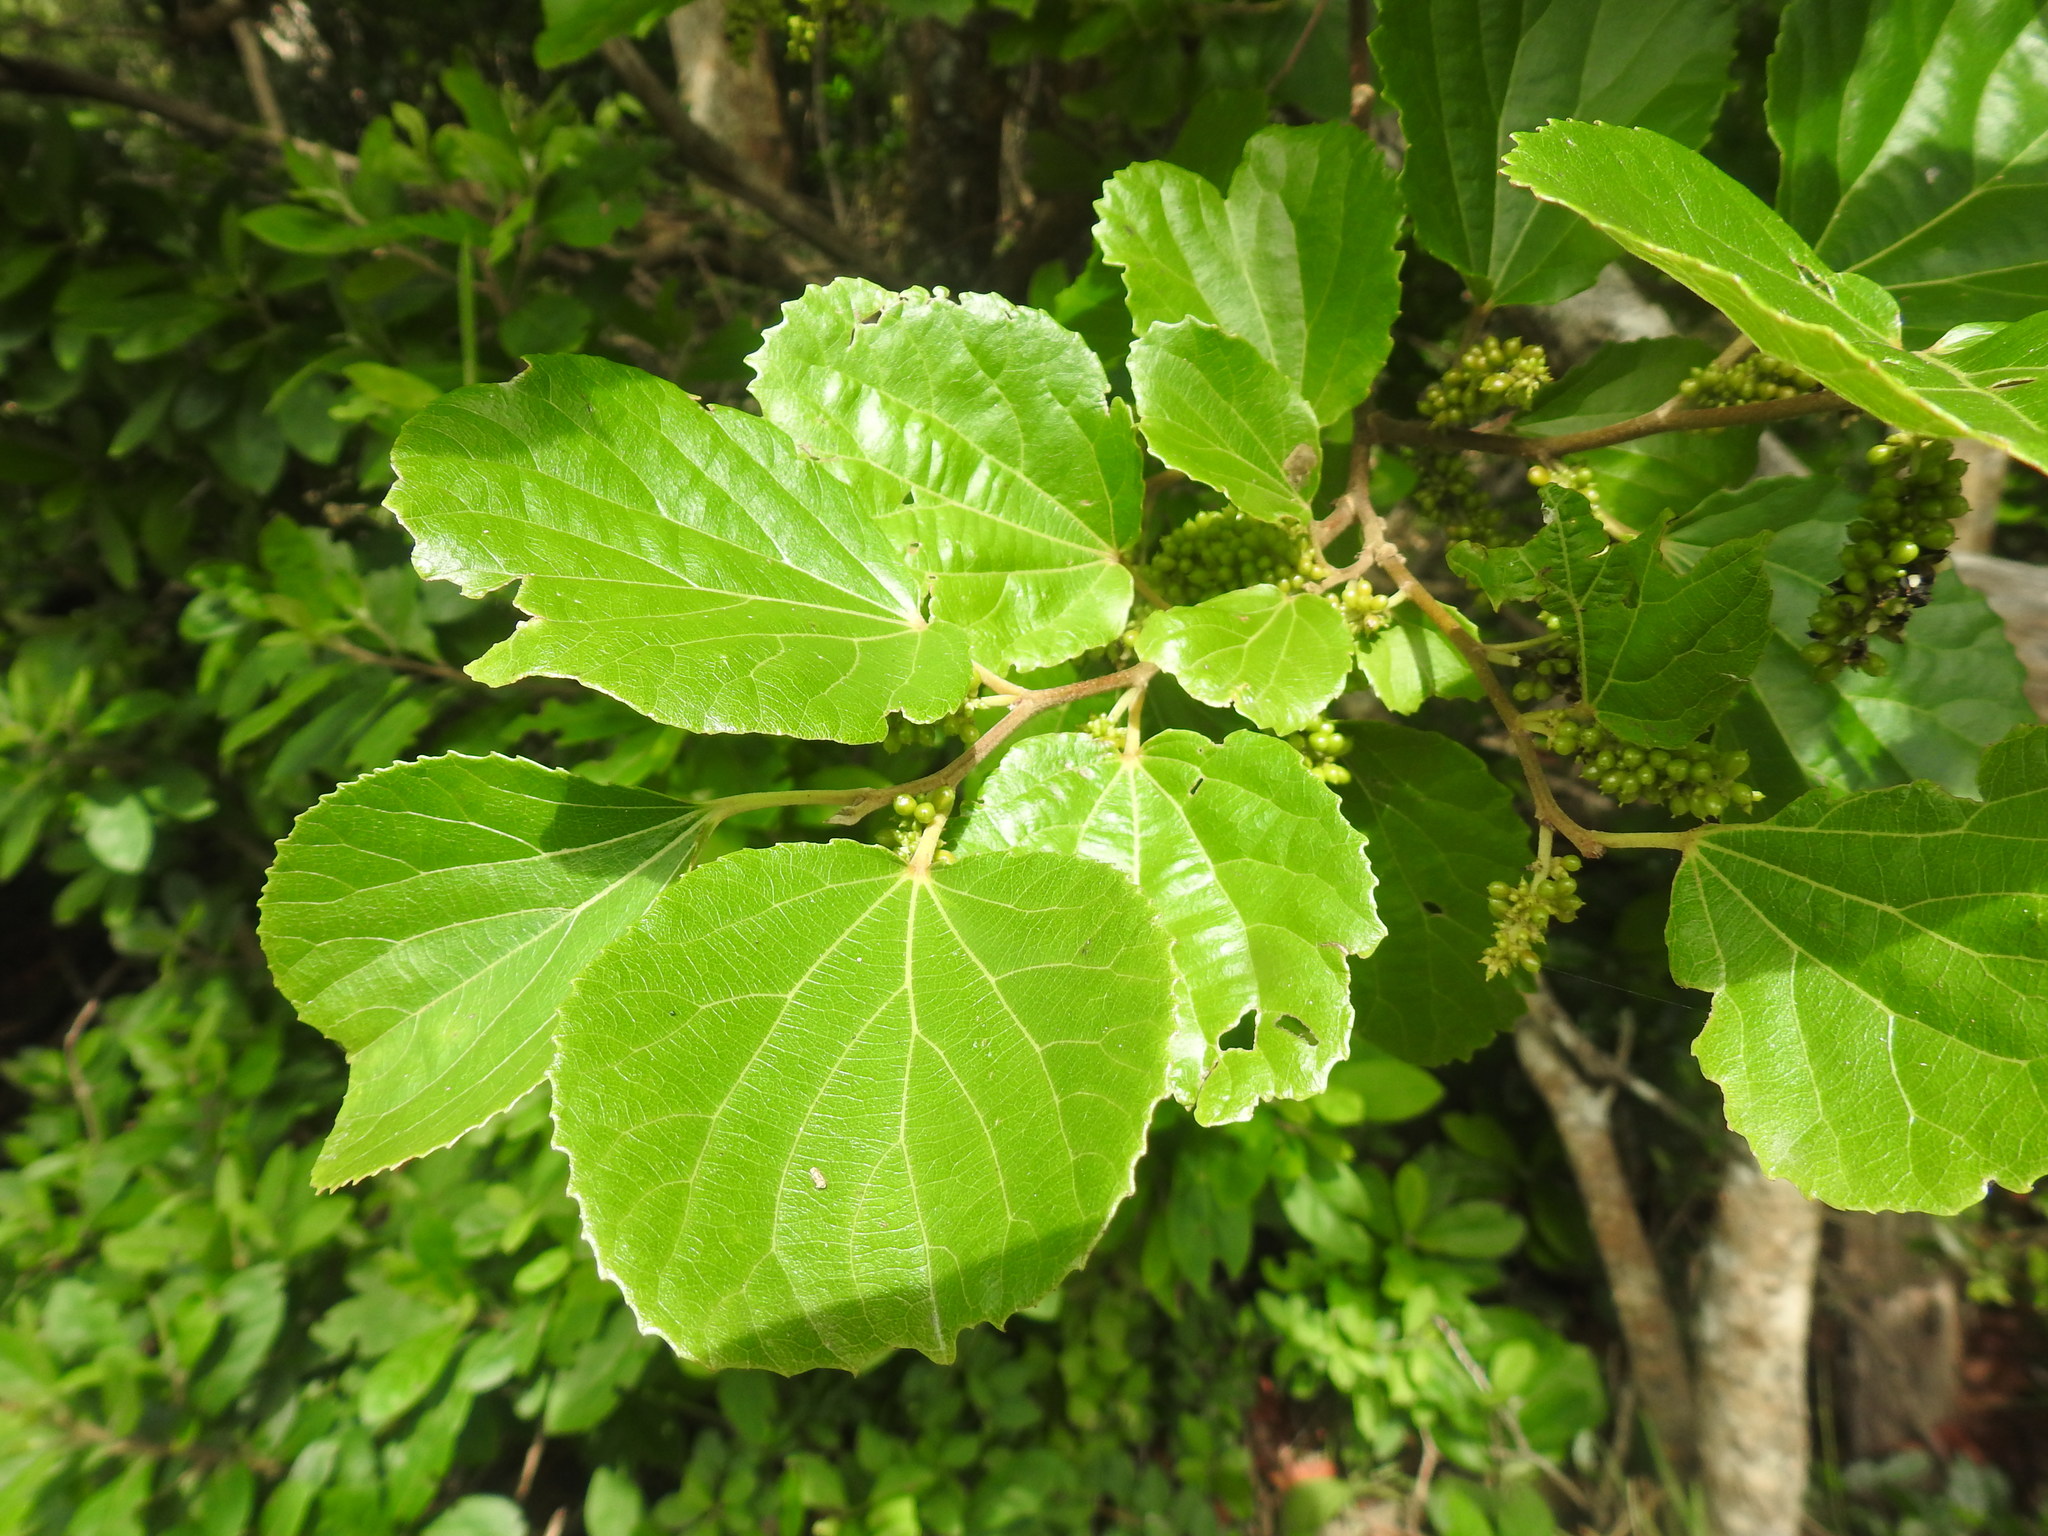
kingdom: Plantae
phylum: Tracheophyta
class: Magnoliopsida
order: Malpighiales
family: Salicaceae
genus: Trimeria
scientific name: Trimeria grandifolia
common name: Wild mulberry
